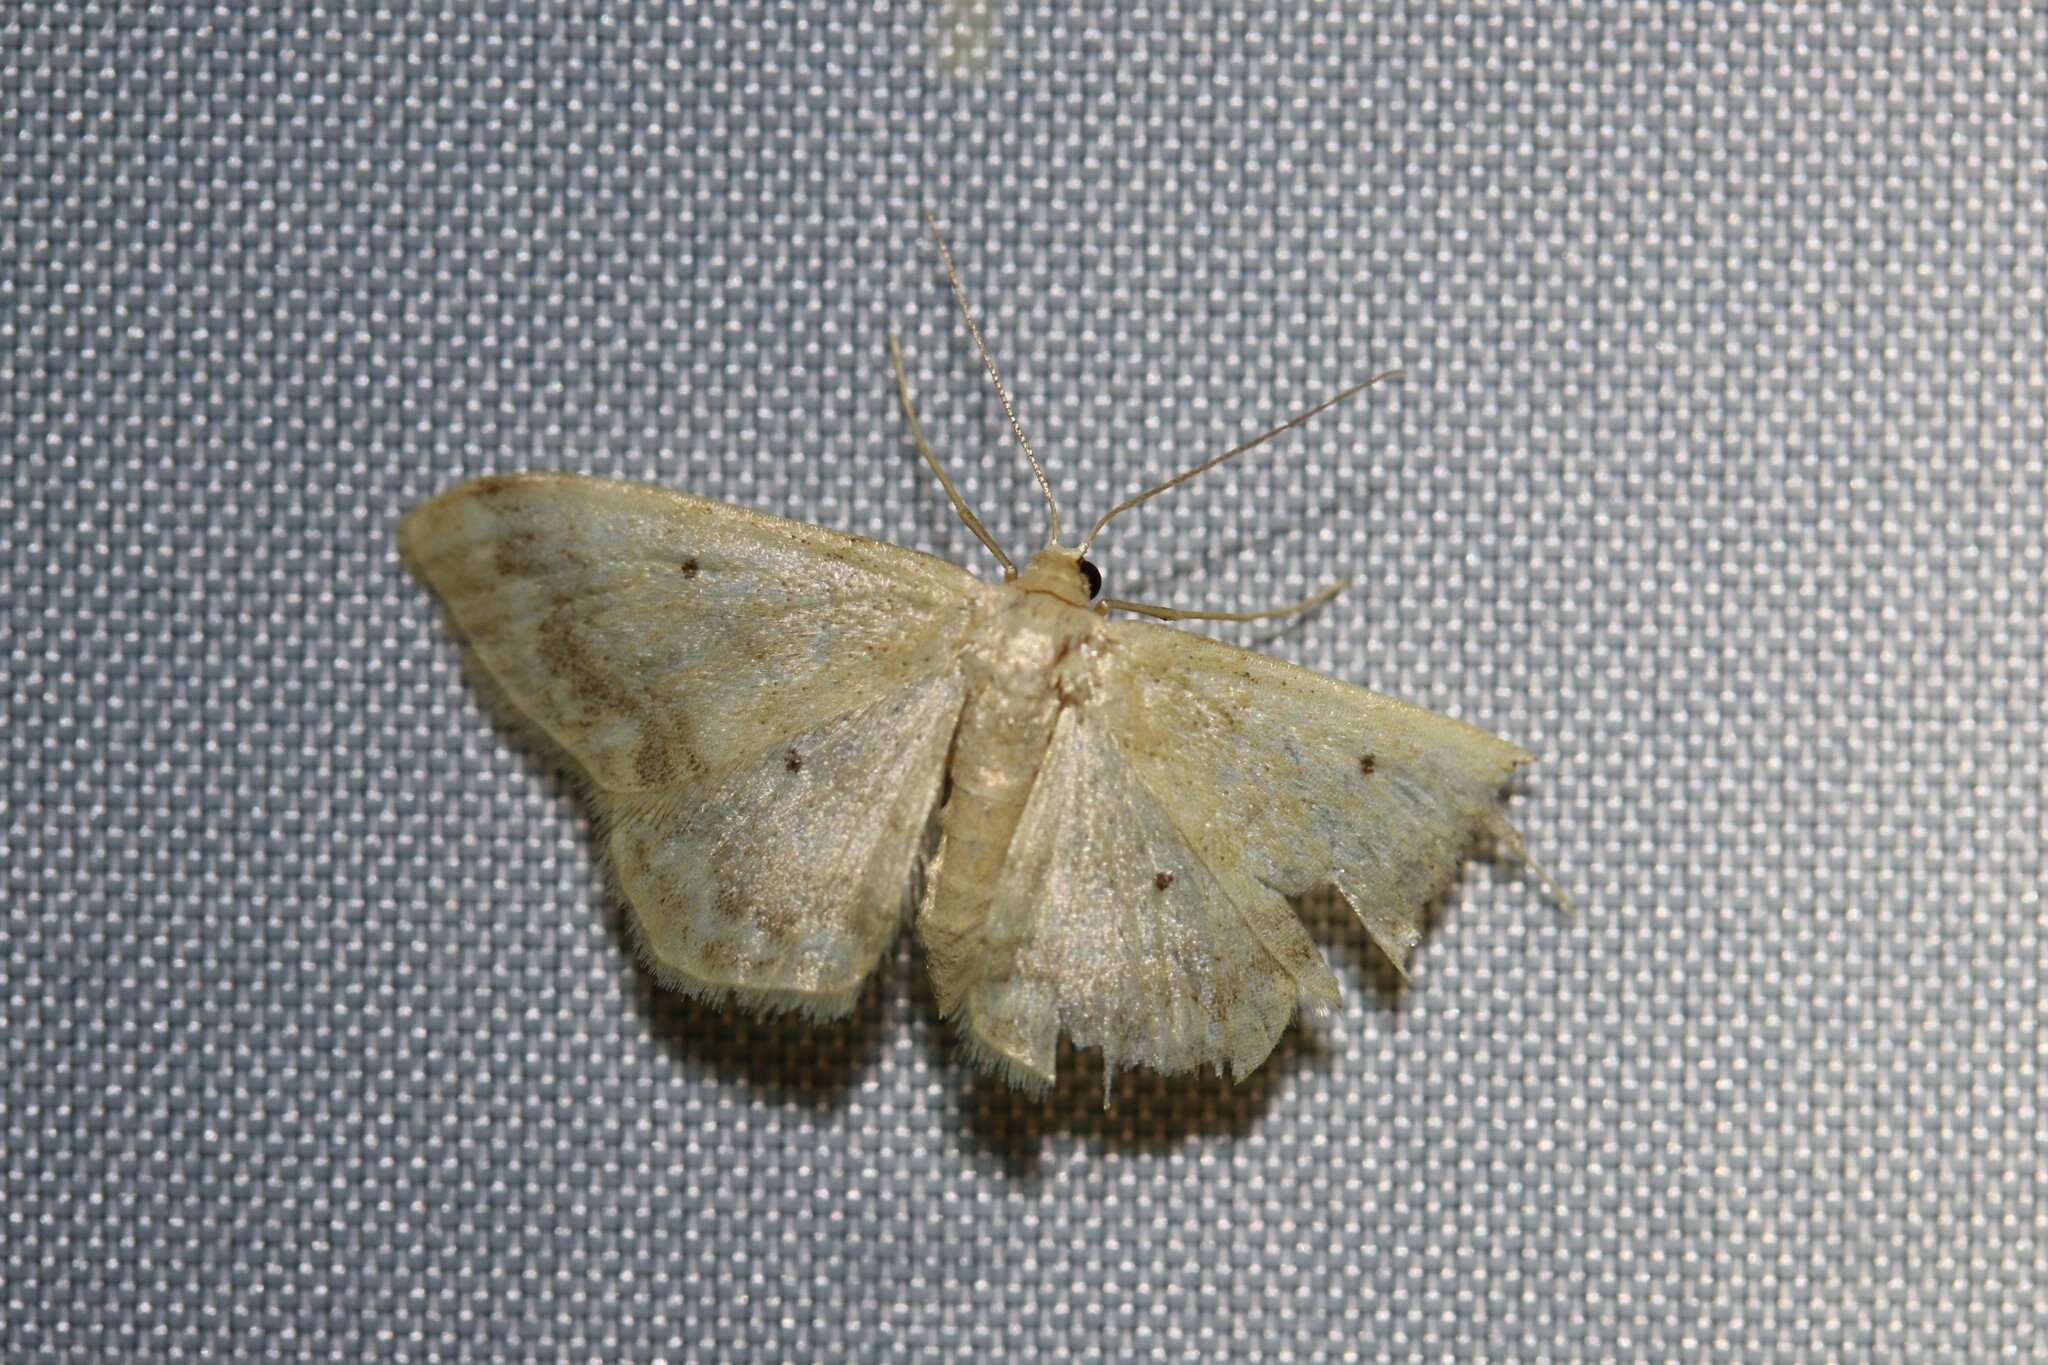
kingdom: Animalia
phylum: Arthropoda
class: Insecta
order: Lepidoptera
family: Geometridae
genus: Idaea
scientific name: Idaea biselata
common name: Small fan-footed wave
